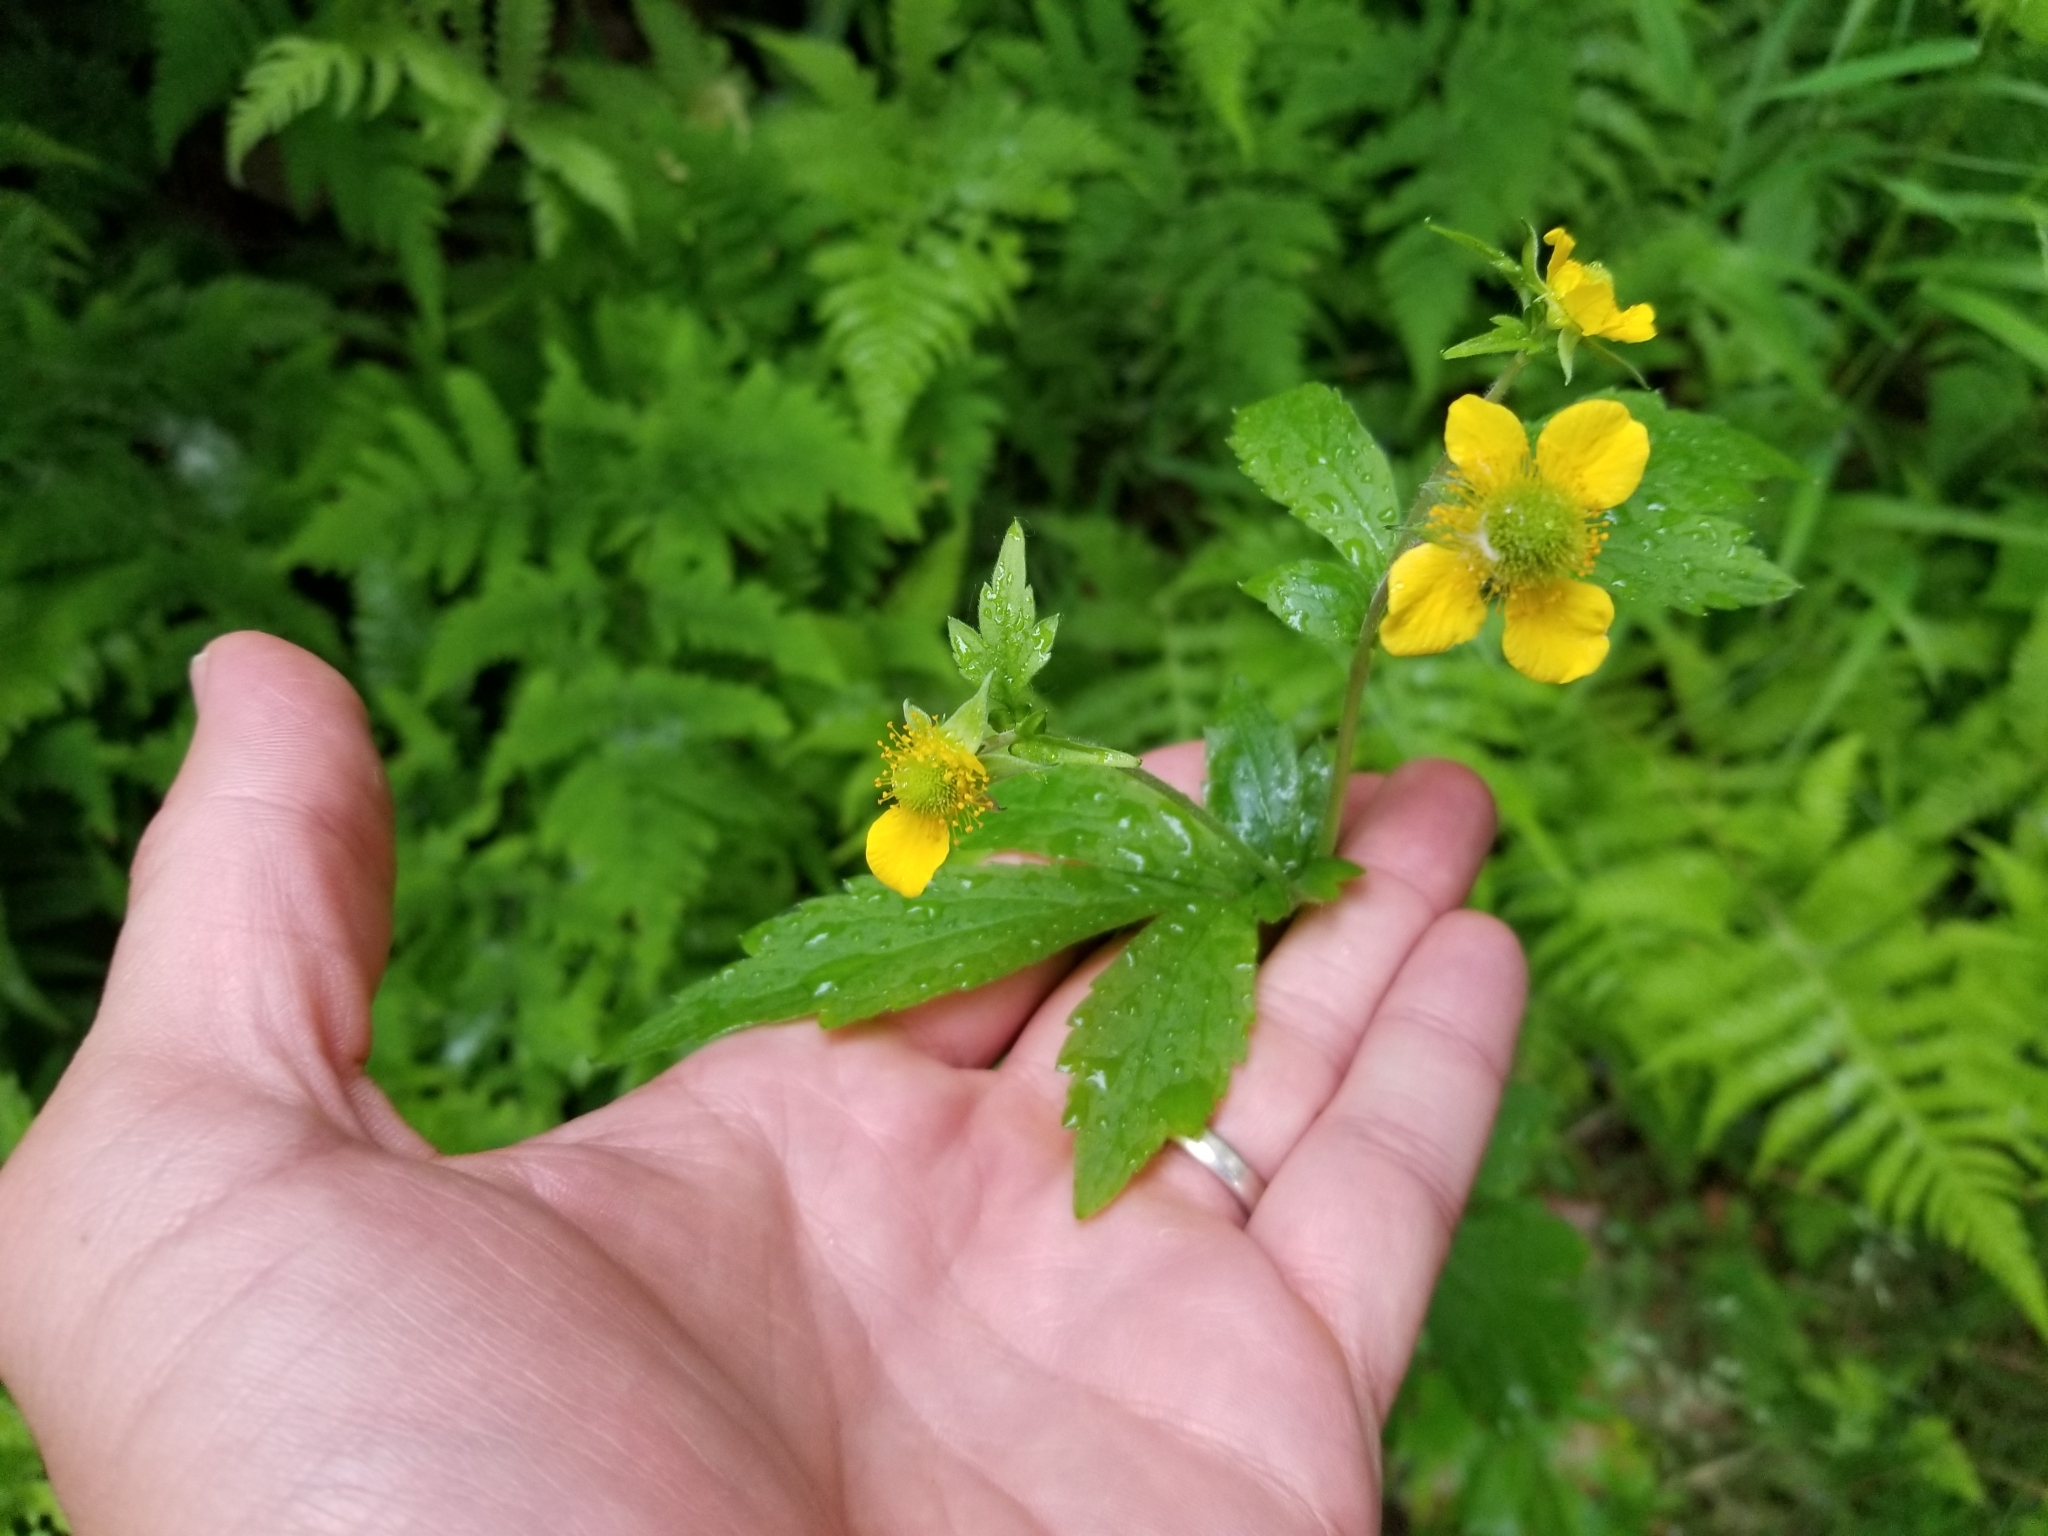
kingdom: Plantae
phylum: Tracheophyta
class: Magnoliopsida
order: Rosales
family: Rosaceae
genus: Geum
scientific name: Geum macrophyllum
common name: Large-leaved avens
